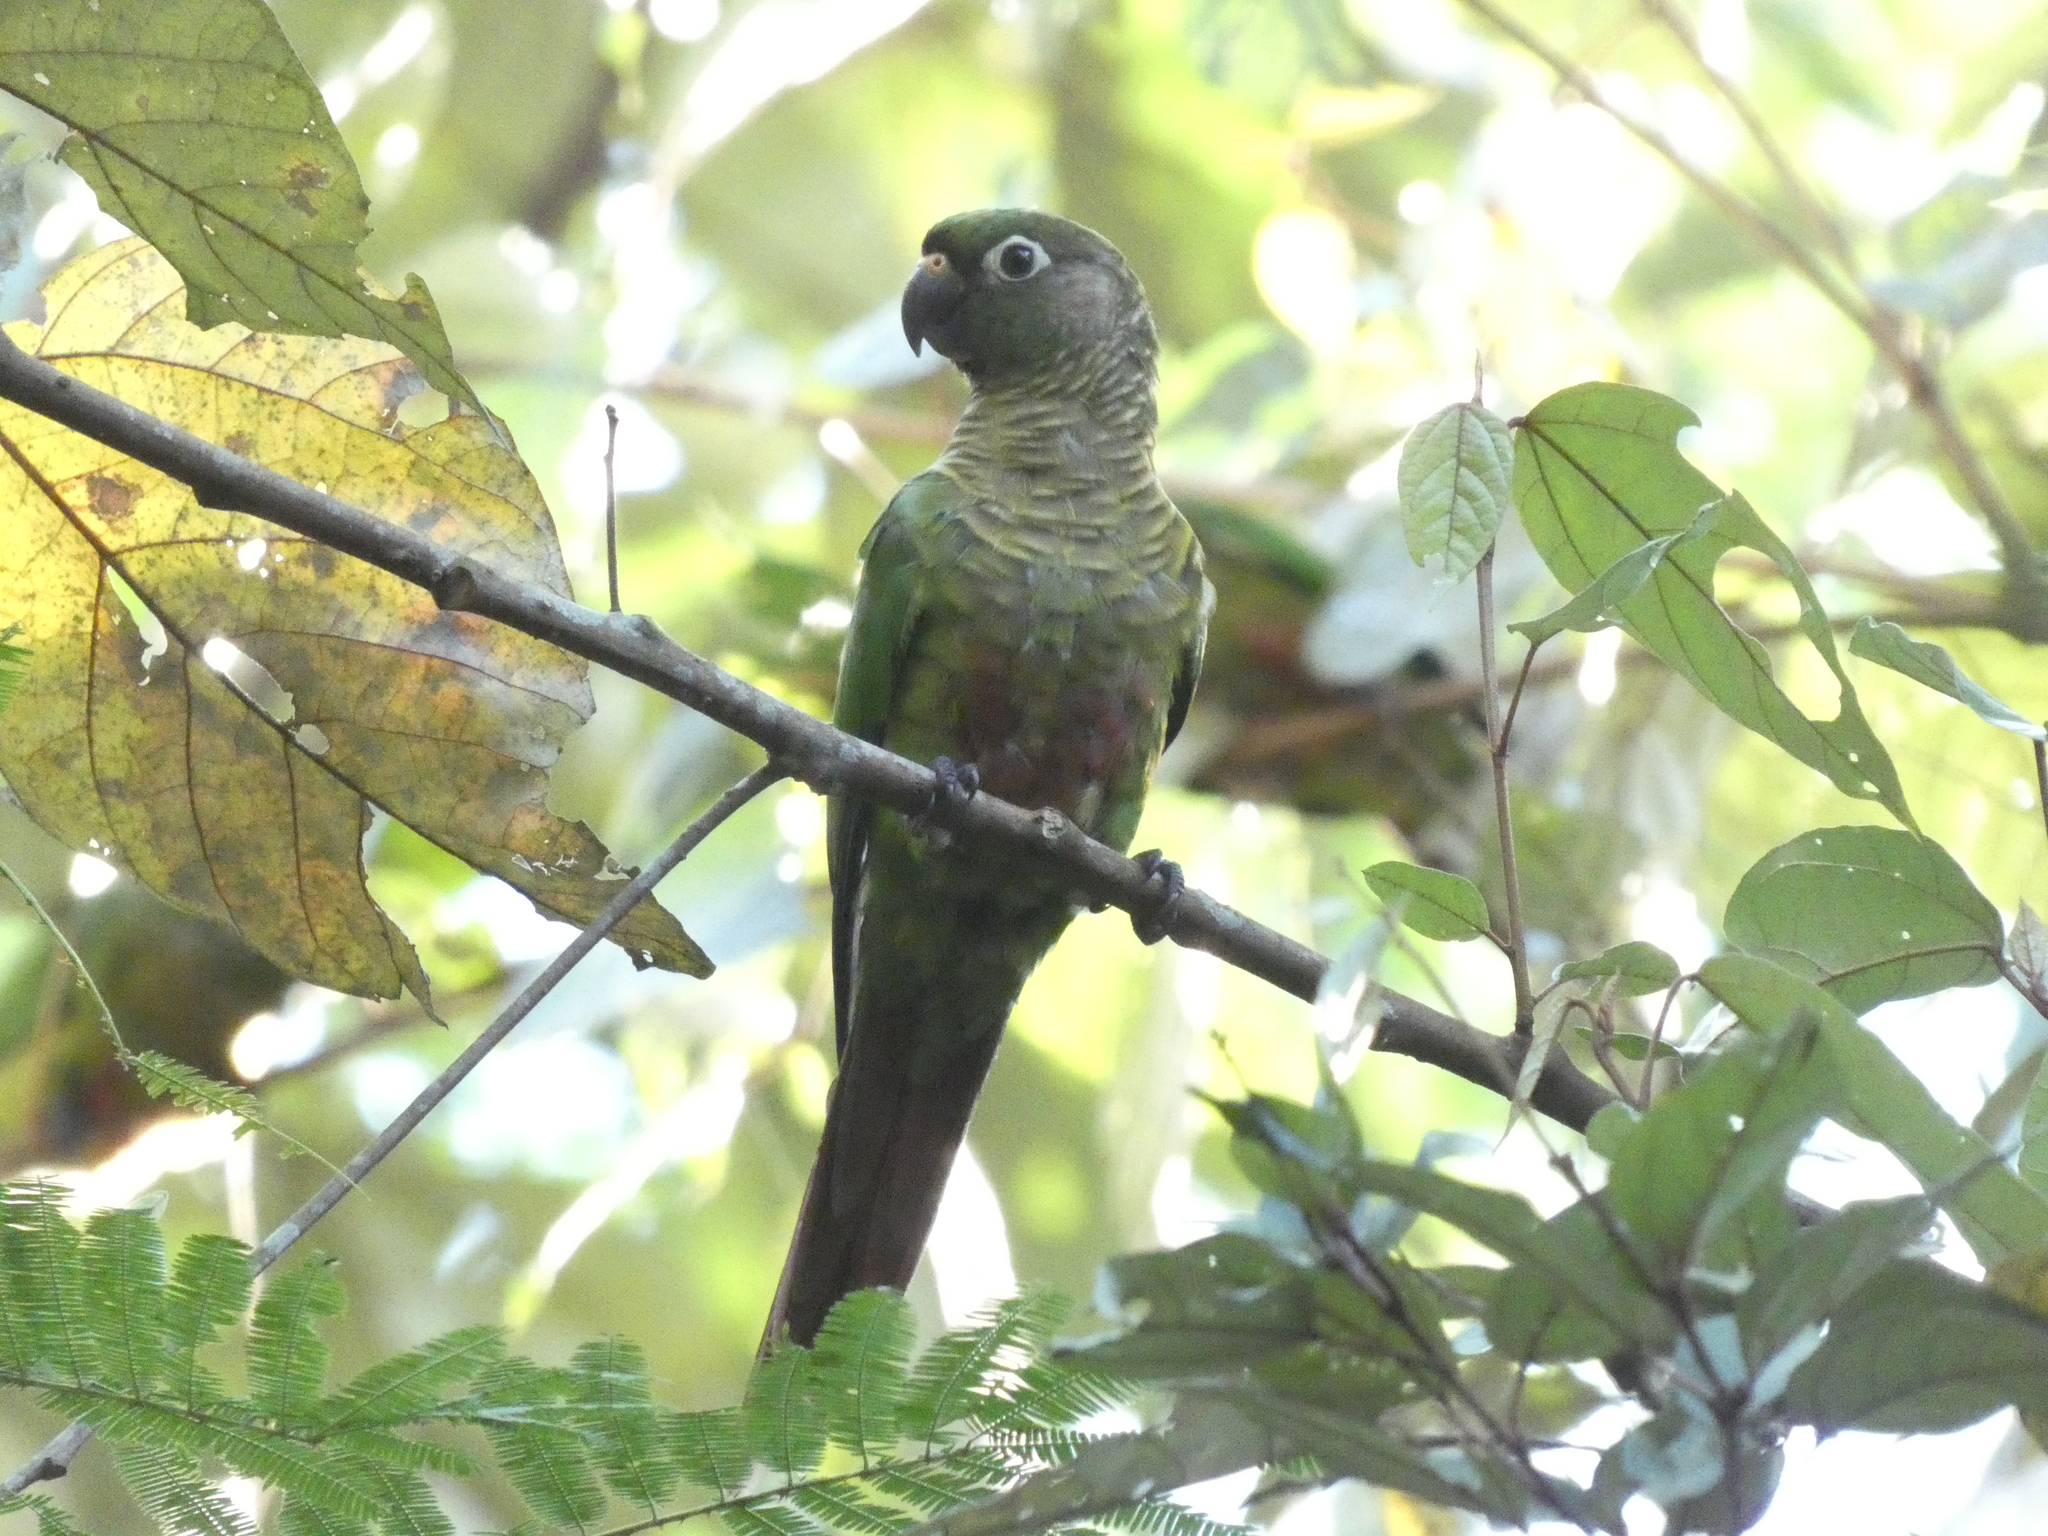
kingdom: Animalia
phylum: Chordata
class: Aves
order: Psittaciformes
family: Psittacidae
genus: Pyrrhura
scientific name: Pyrrhura frontalis
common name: Maroon-bellied parakeet
